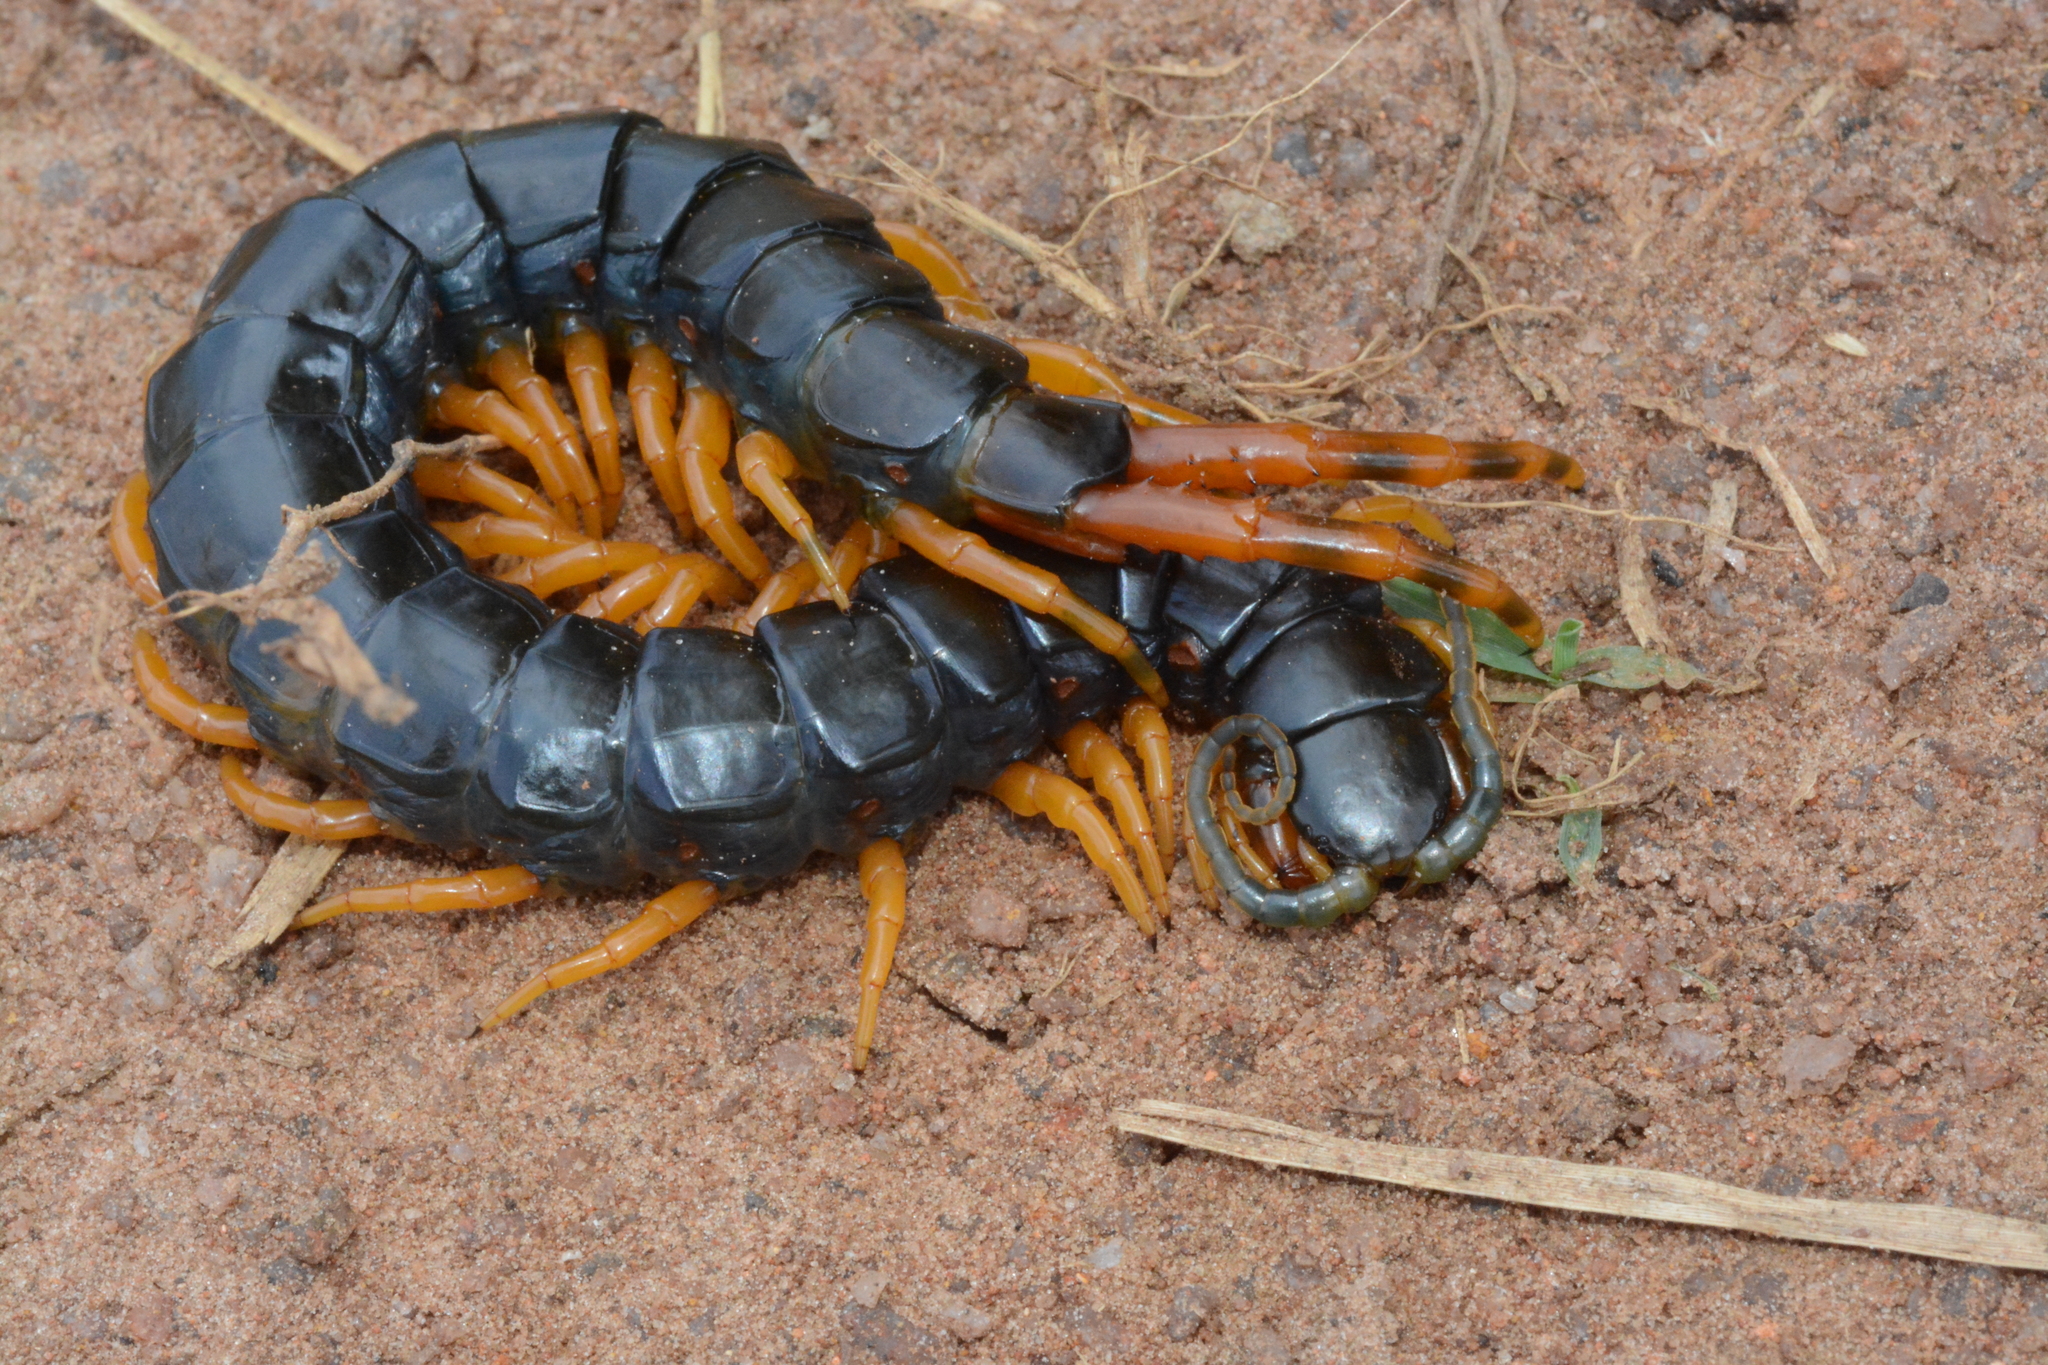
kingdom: Animalia
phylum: Arthropoda
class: Chilopoda
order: Scolopendromorpha
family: Scolopendridae
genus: Ethmostigmus
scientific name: Ethmostigmus trigonopodus
